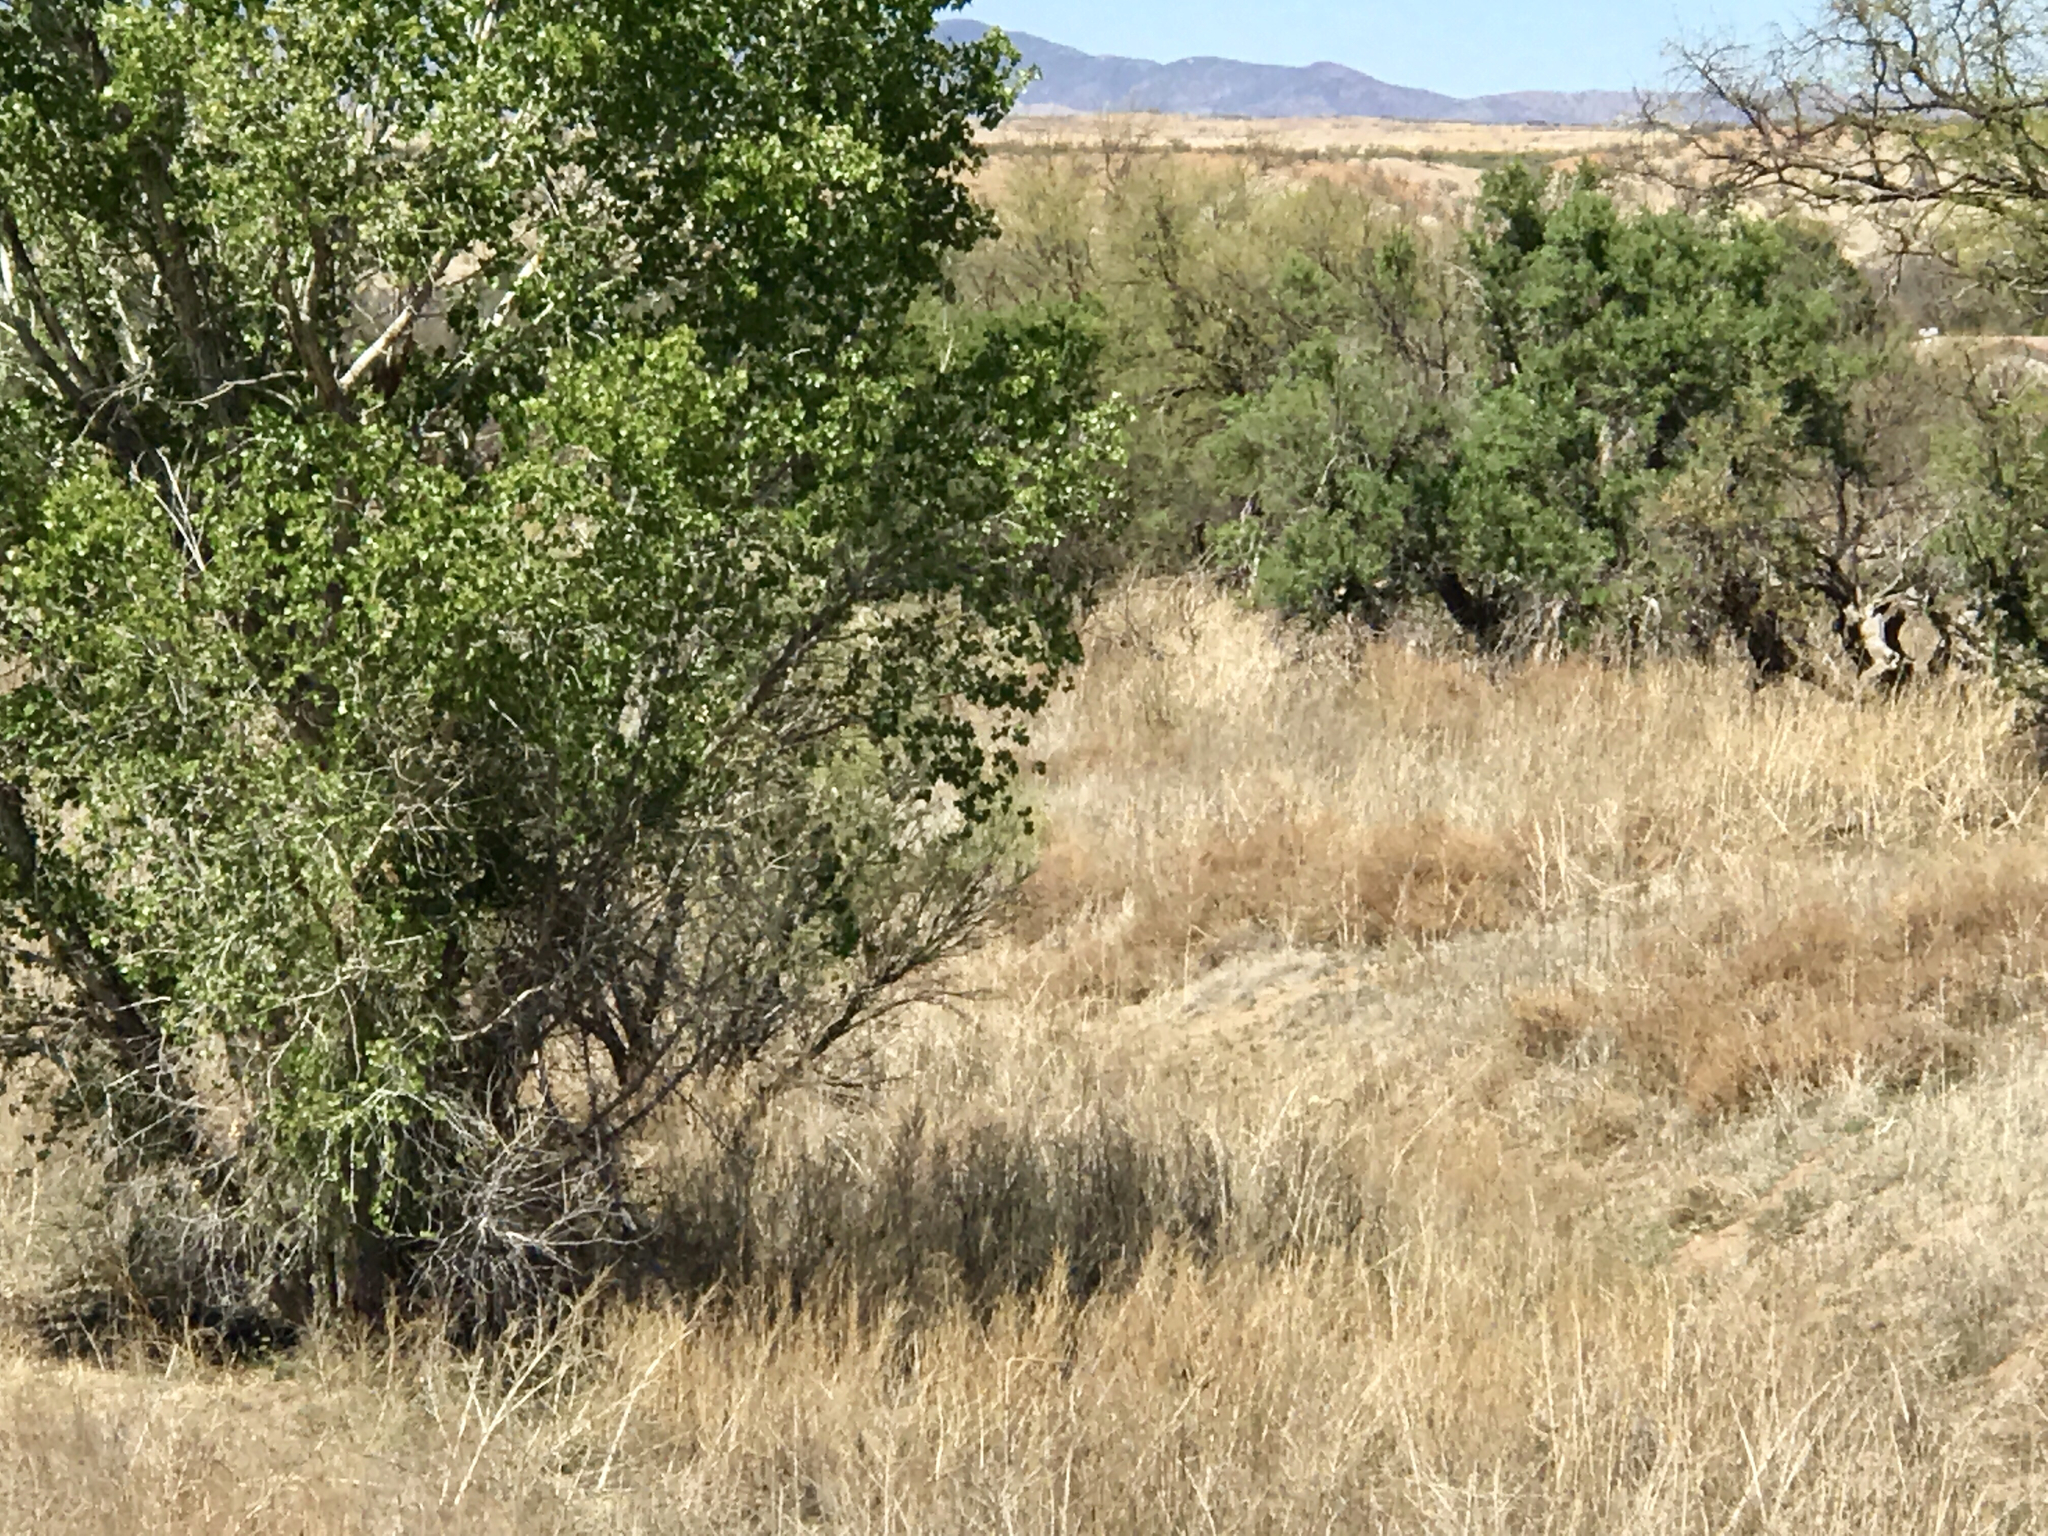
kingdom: Plantae
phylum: Tracheophyta
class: Magnoliopsida
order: Malpighiales
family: Salicaceae
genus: Populus
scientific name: Populus fremontii
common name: Fremont's cottonwood
